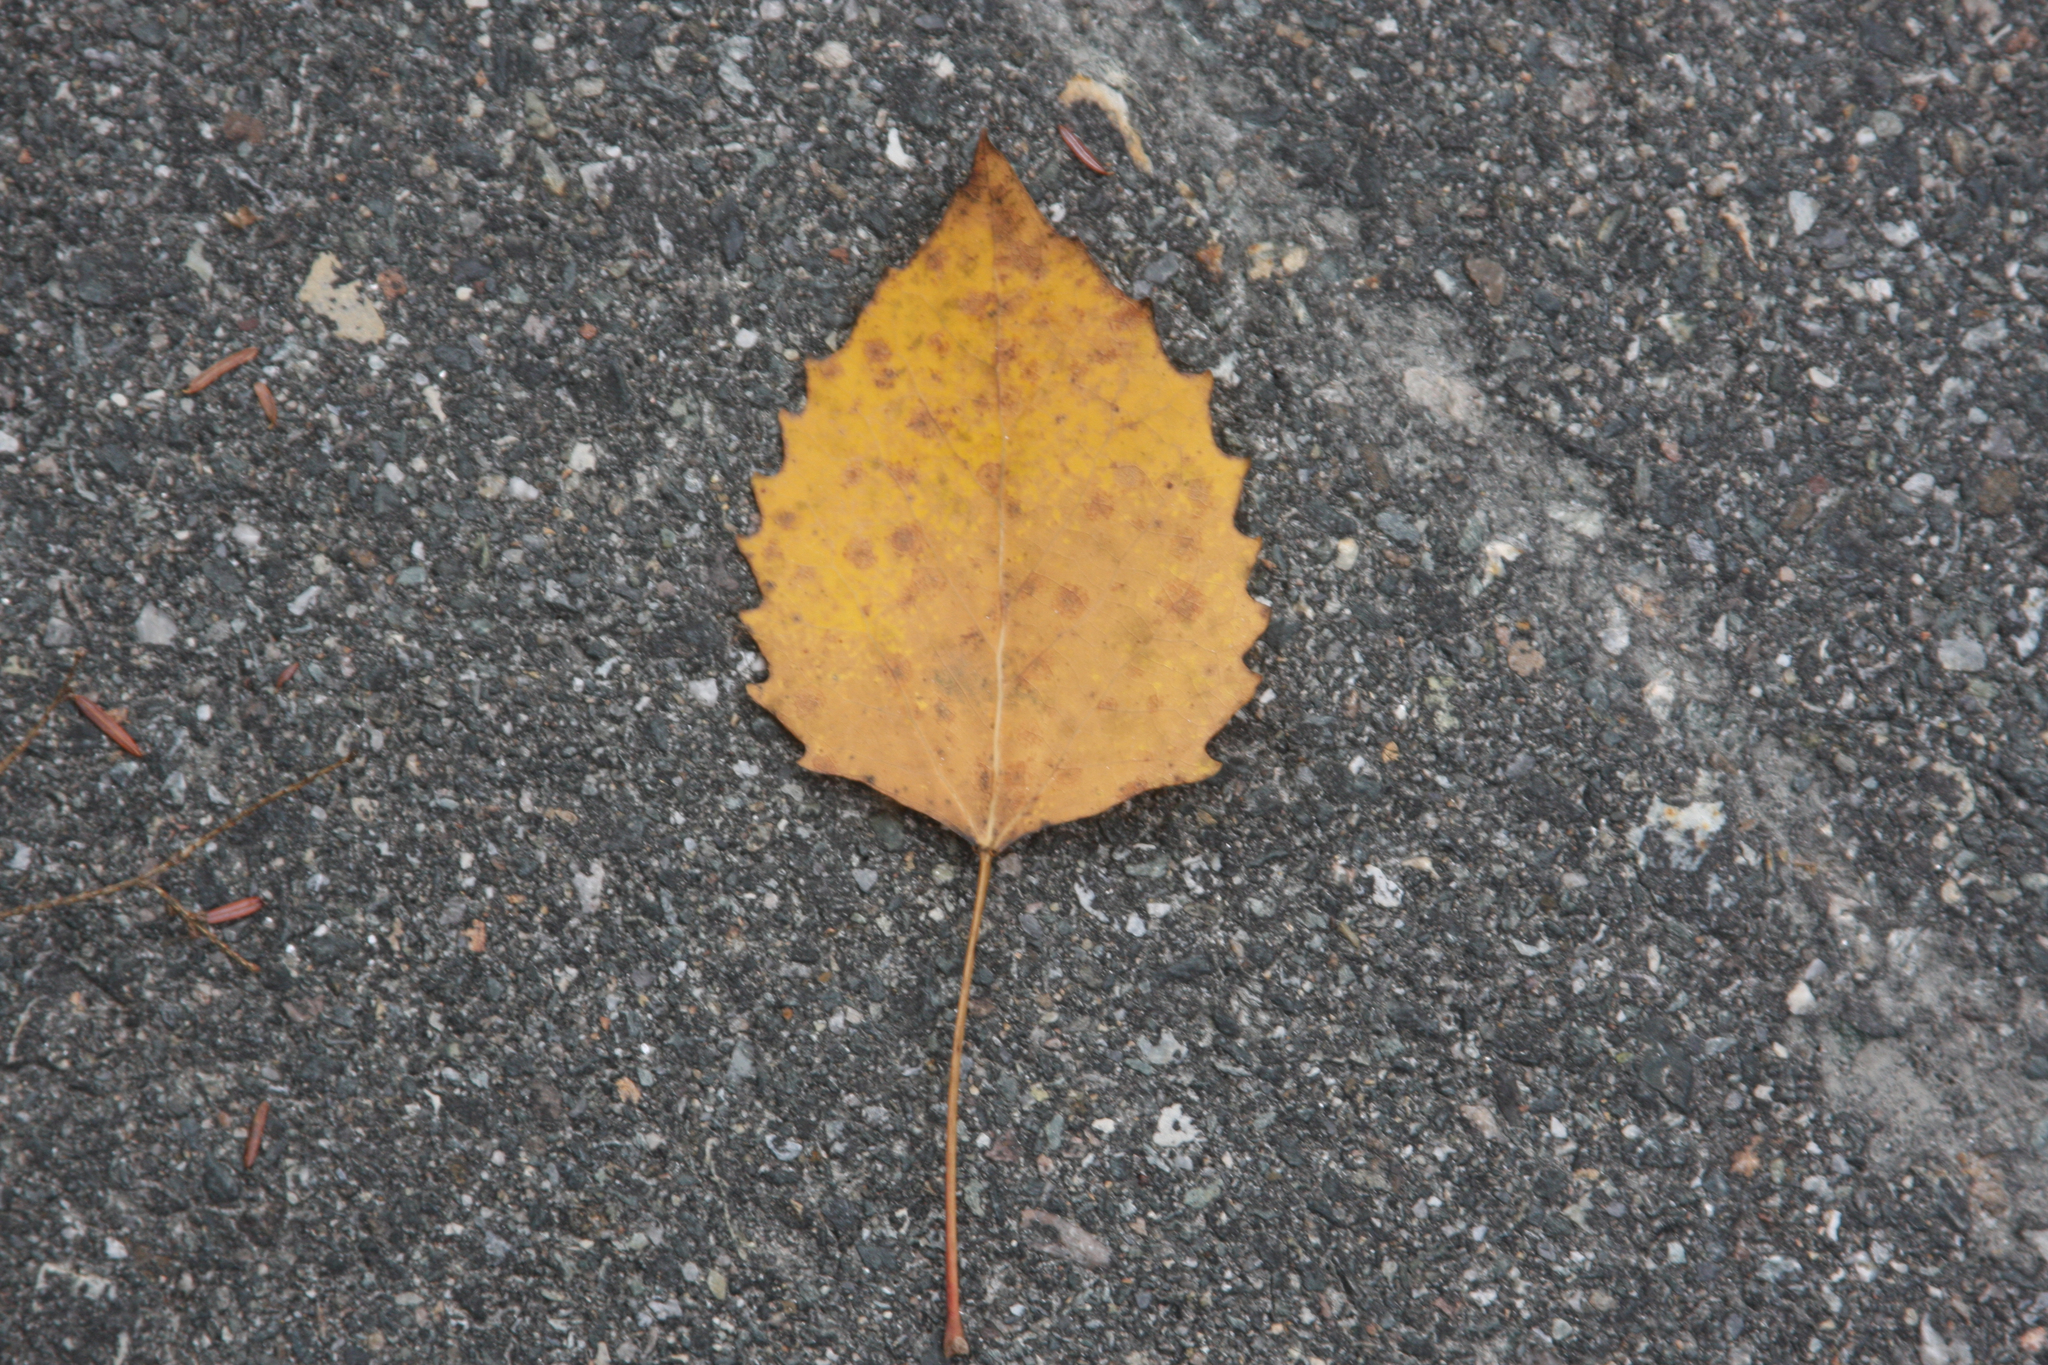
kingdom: Plantae
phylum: Tracheophyta
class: Magnoliopsida
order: Malpighiales
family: Salicaceae
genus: Populus
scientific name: Populus grandidentata
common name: Bigtooth aspen
